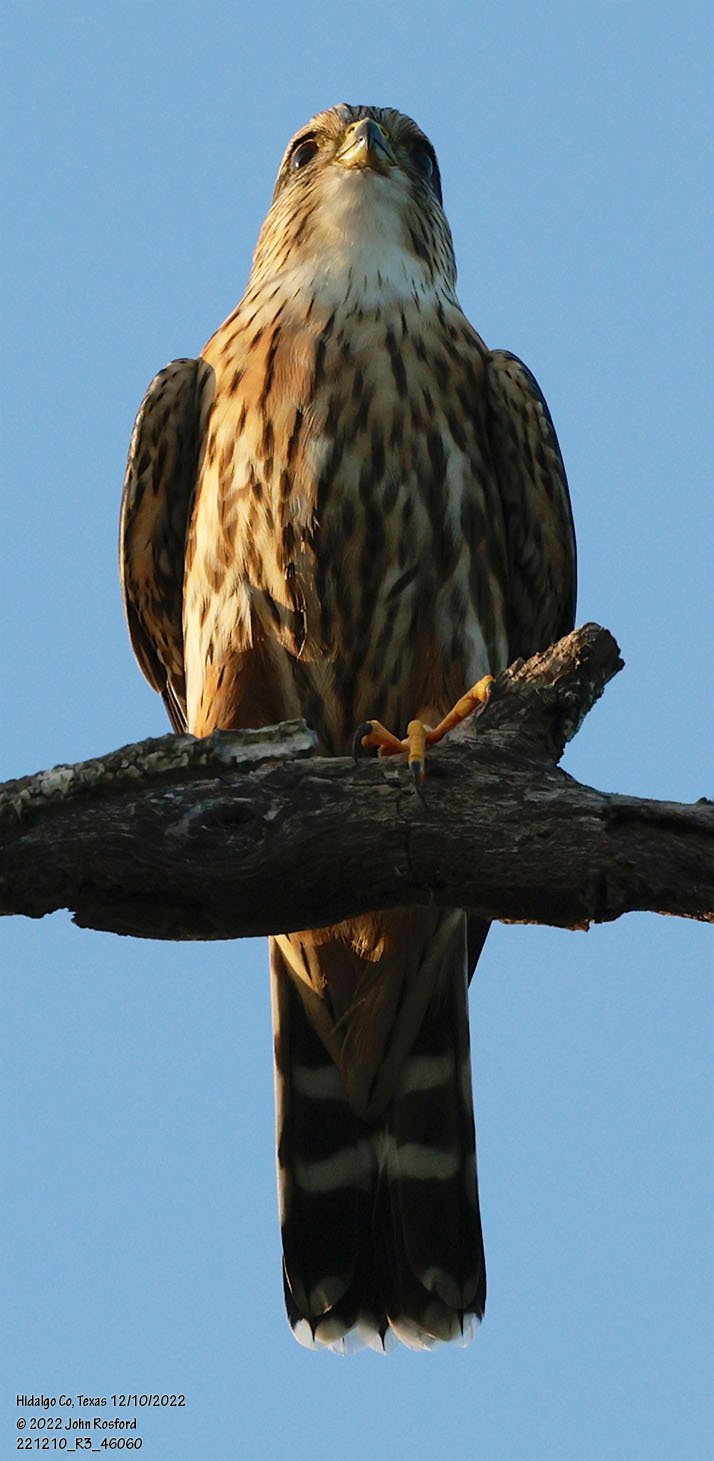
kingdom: Animalia
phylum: Chordata
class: Aves
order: Falconiformes
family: Falconidae
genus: Falco
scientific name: Falco columbarius
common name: Merlin
